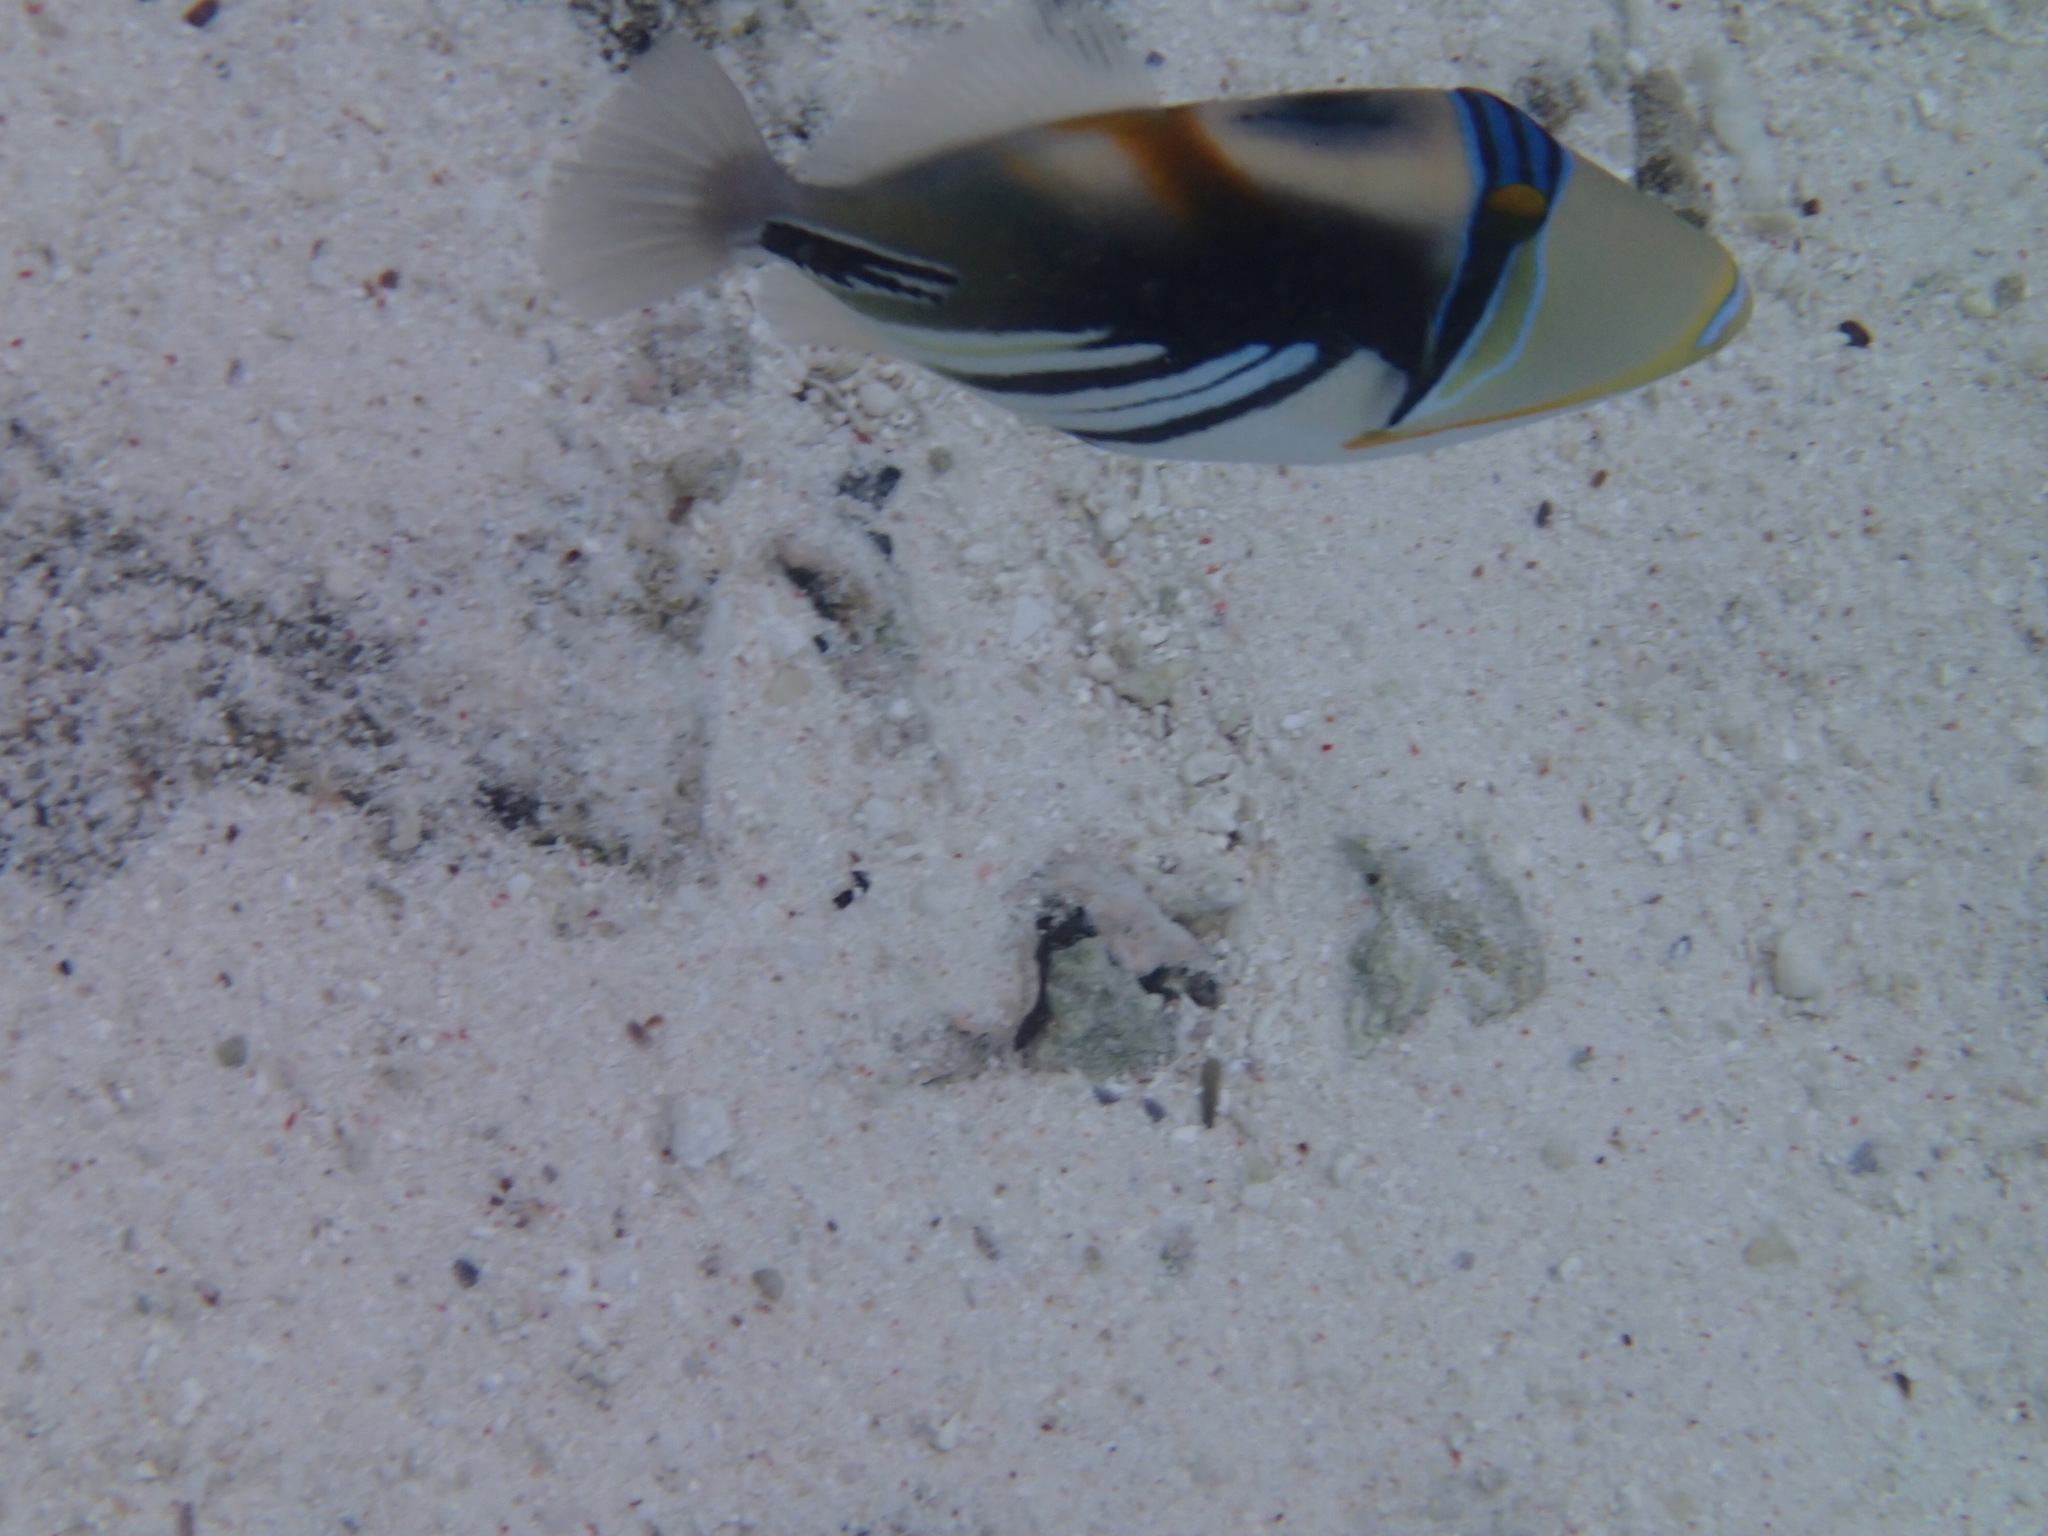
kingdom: Animalia
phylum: Chordata
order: Tetraodontiformes
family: Balistidae
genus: Rhinecanthus
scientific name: Rhinecanthus aculeatus
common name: White-banded triggerfish
